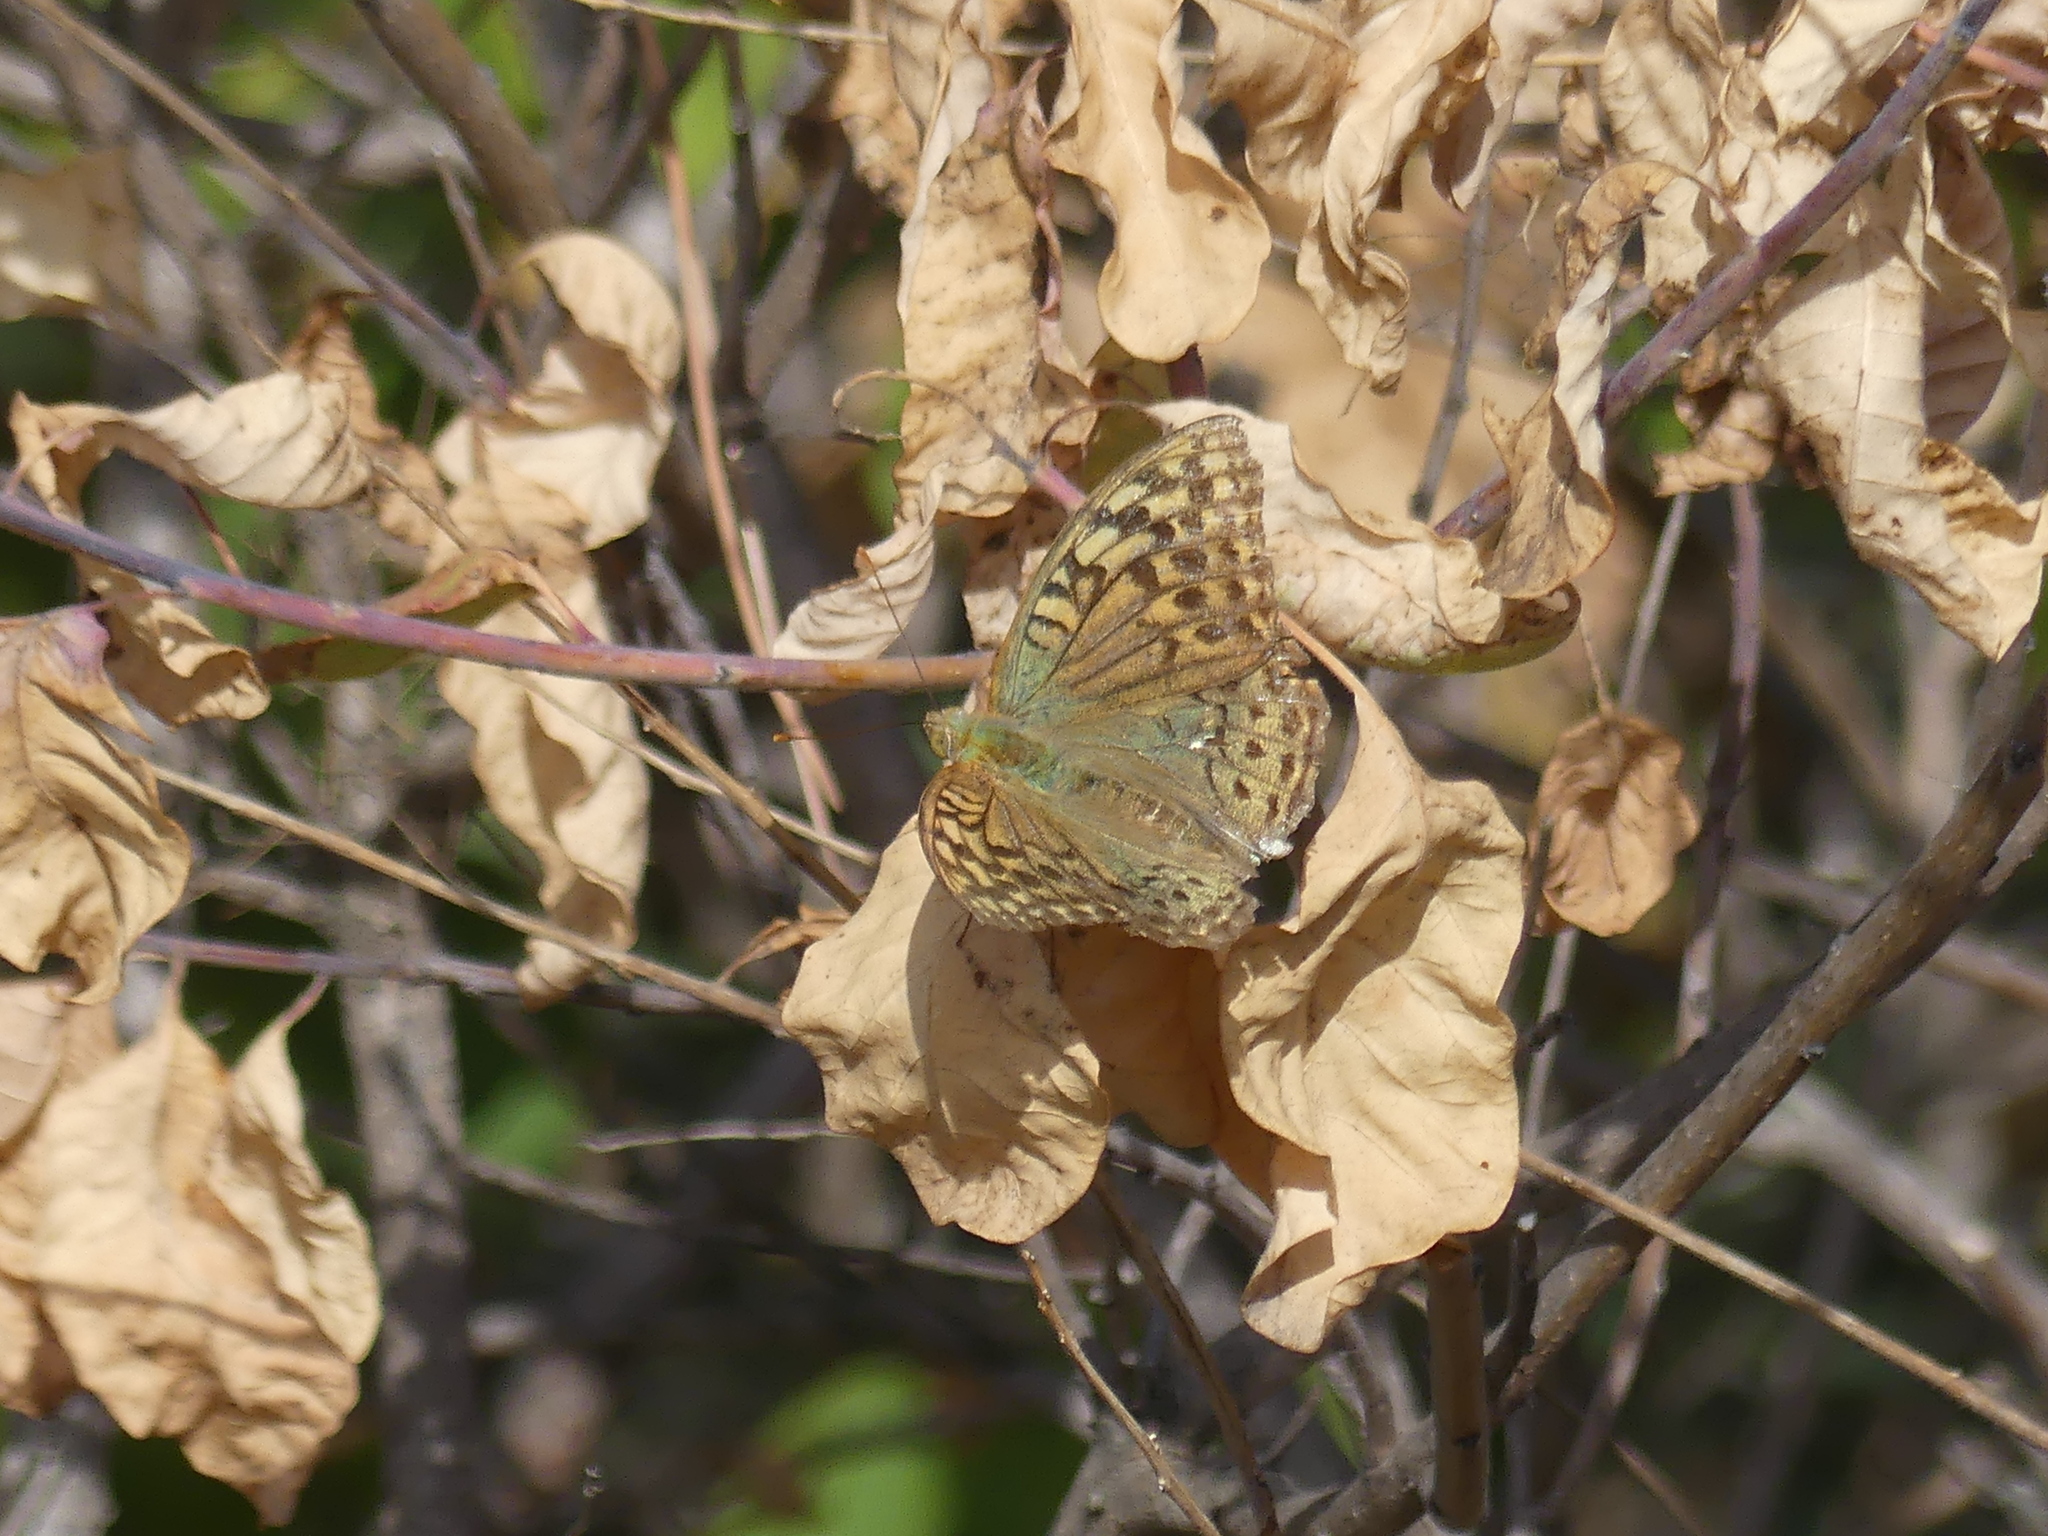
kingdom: Animalia
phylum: Arthropoda
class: Insecta
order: Lepidoptera
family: Nymphalidae
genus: Damora
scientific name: Damora pandora
